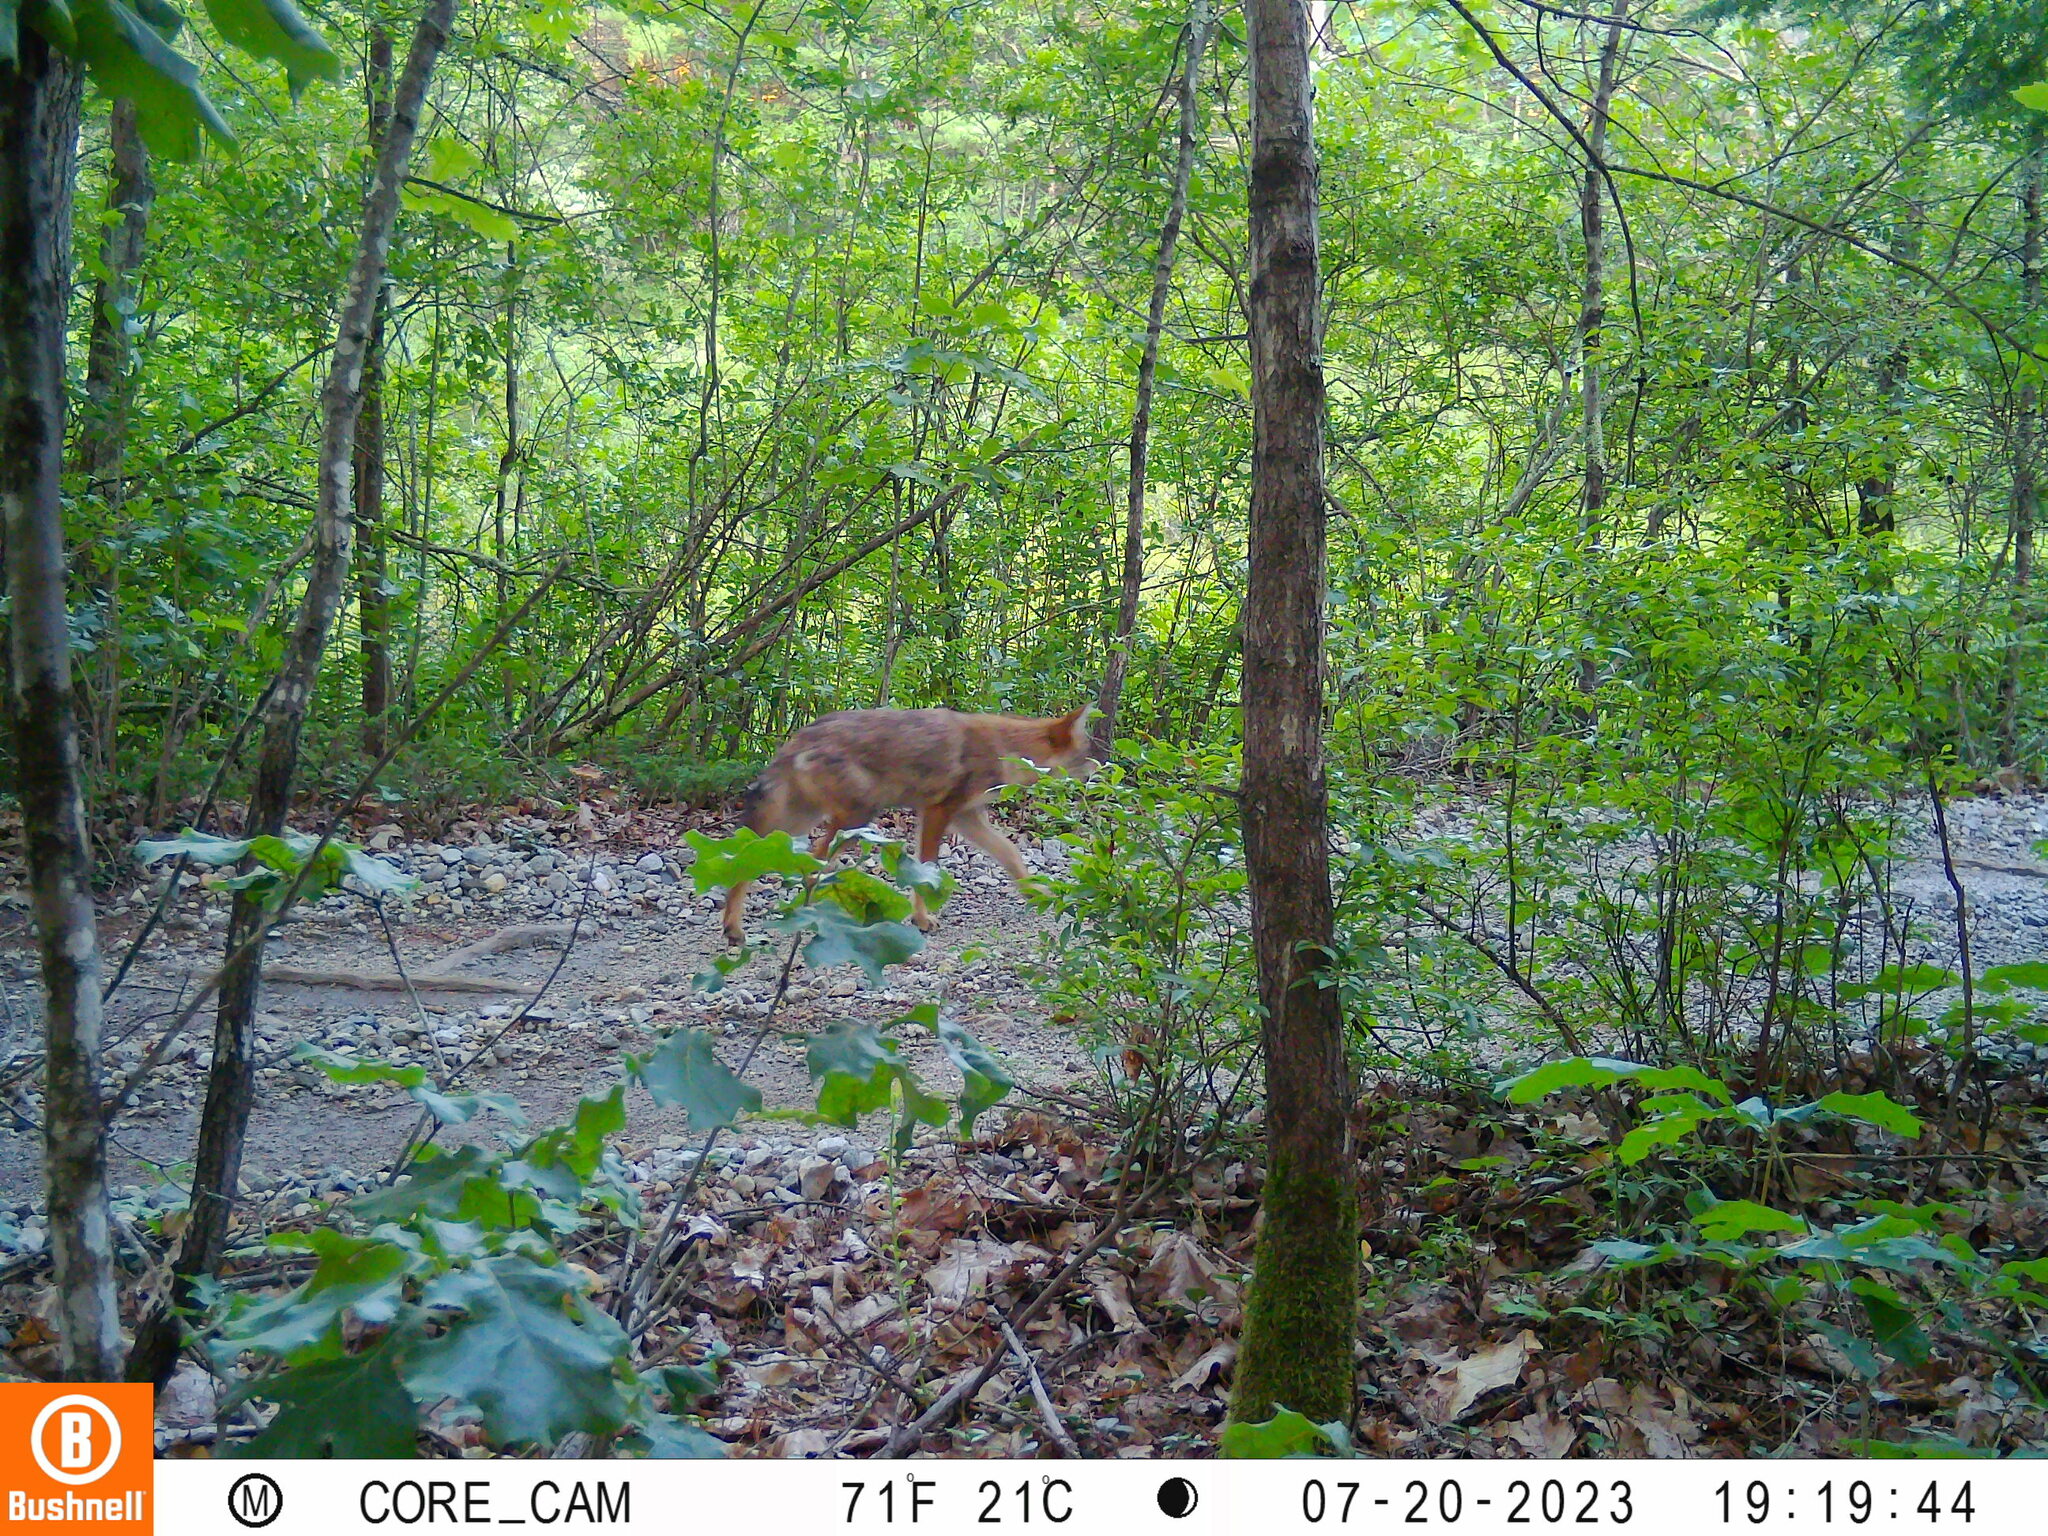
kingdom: Animalia
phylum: Chordata
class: Mammalia
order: Carnivora
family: Canidae
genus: Canis
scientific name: Canis latrans
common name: Coyote
